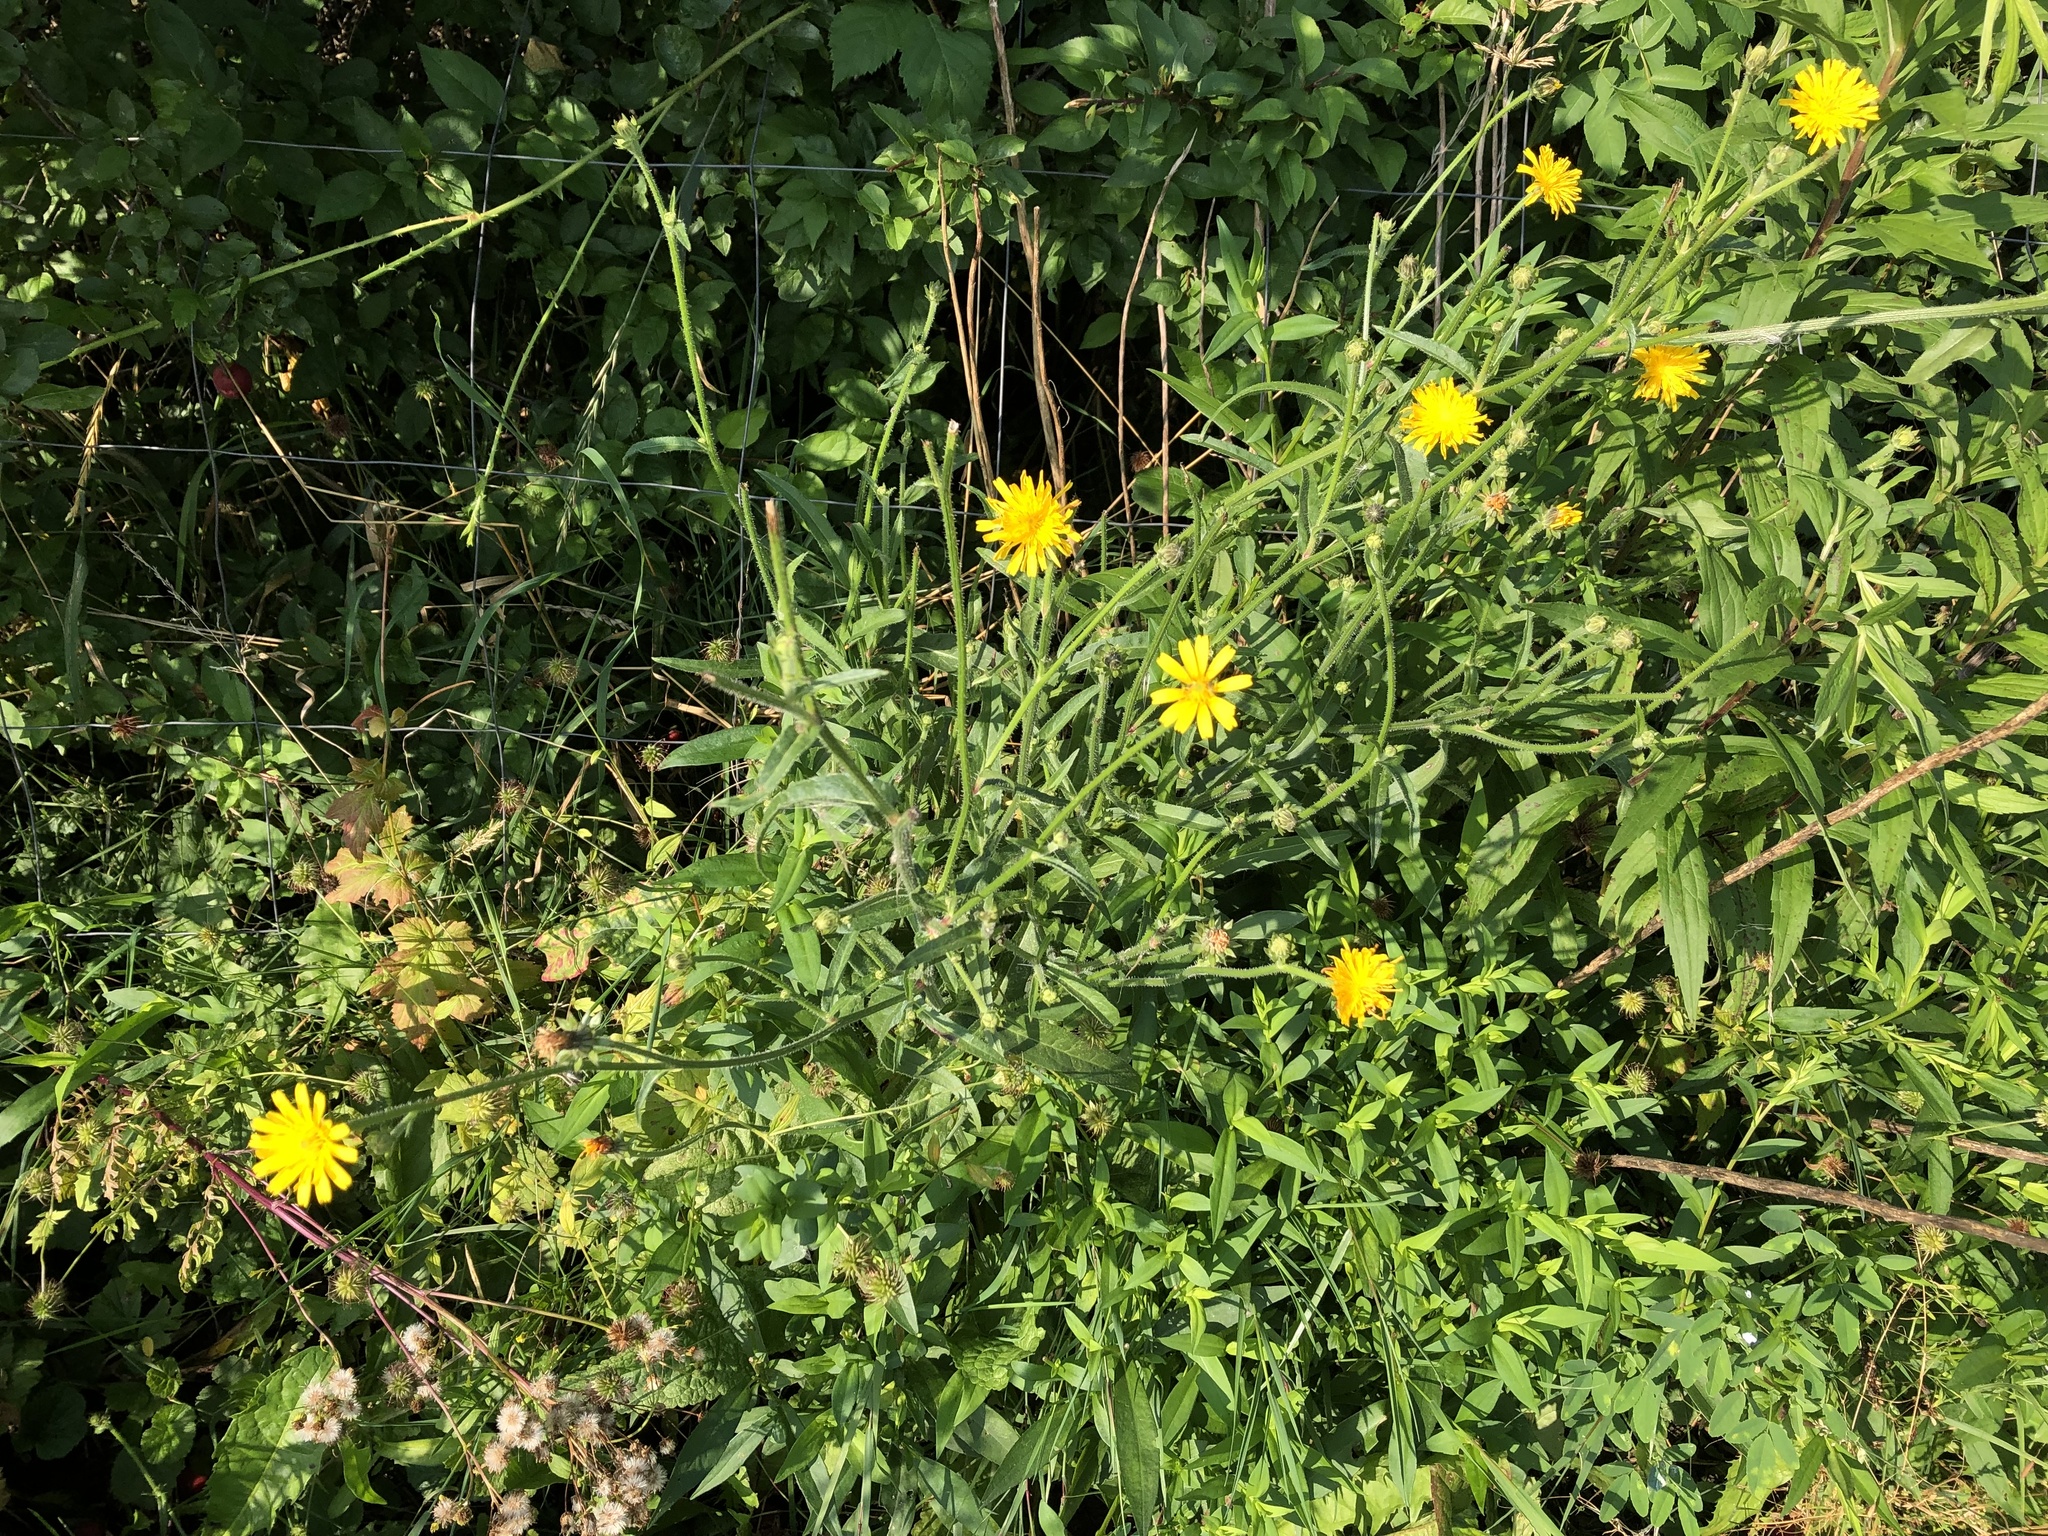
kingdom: Plantae
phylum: Tracheophyta
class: Magnoliopsida
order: Asterales
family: Asteraceae
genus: Picris
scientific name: Picris hieracioides
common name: Hawkweed oxtongue
